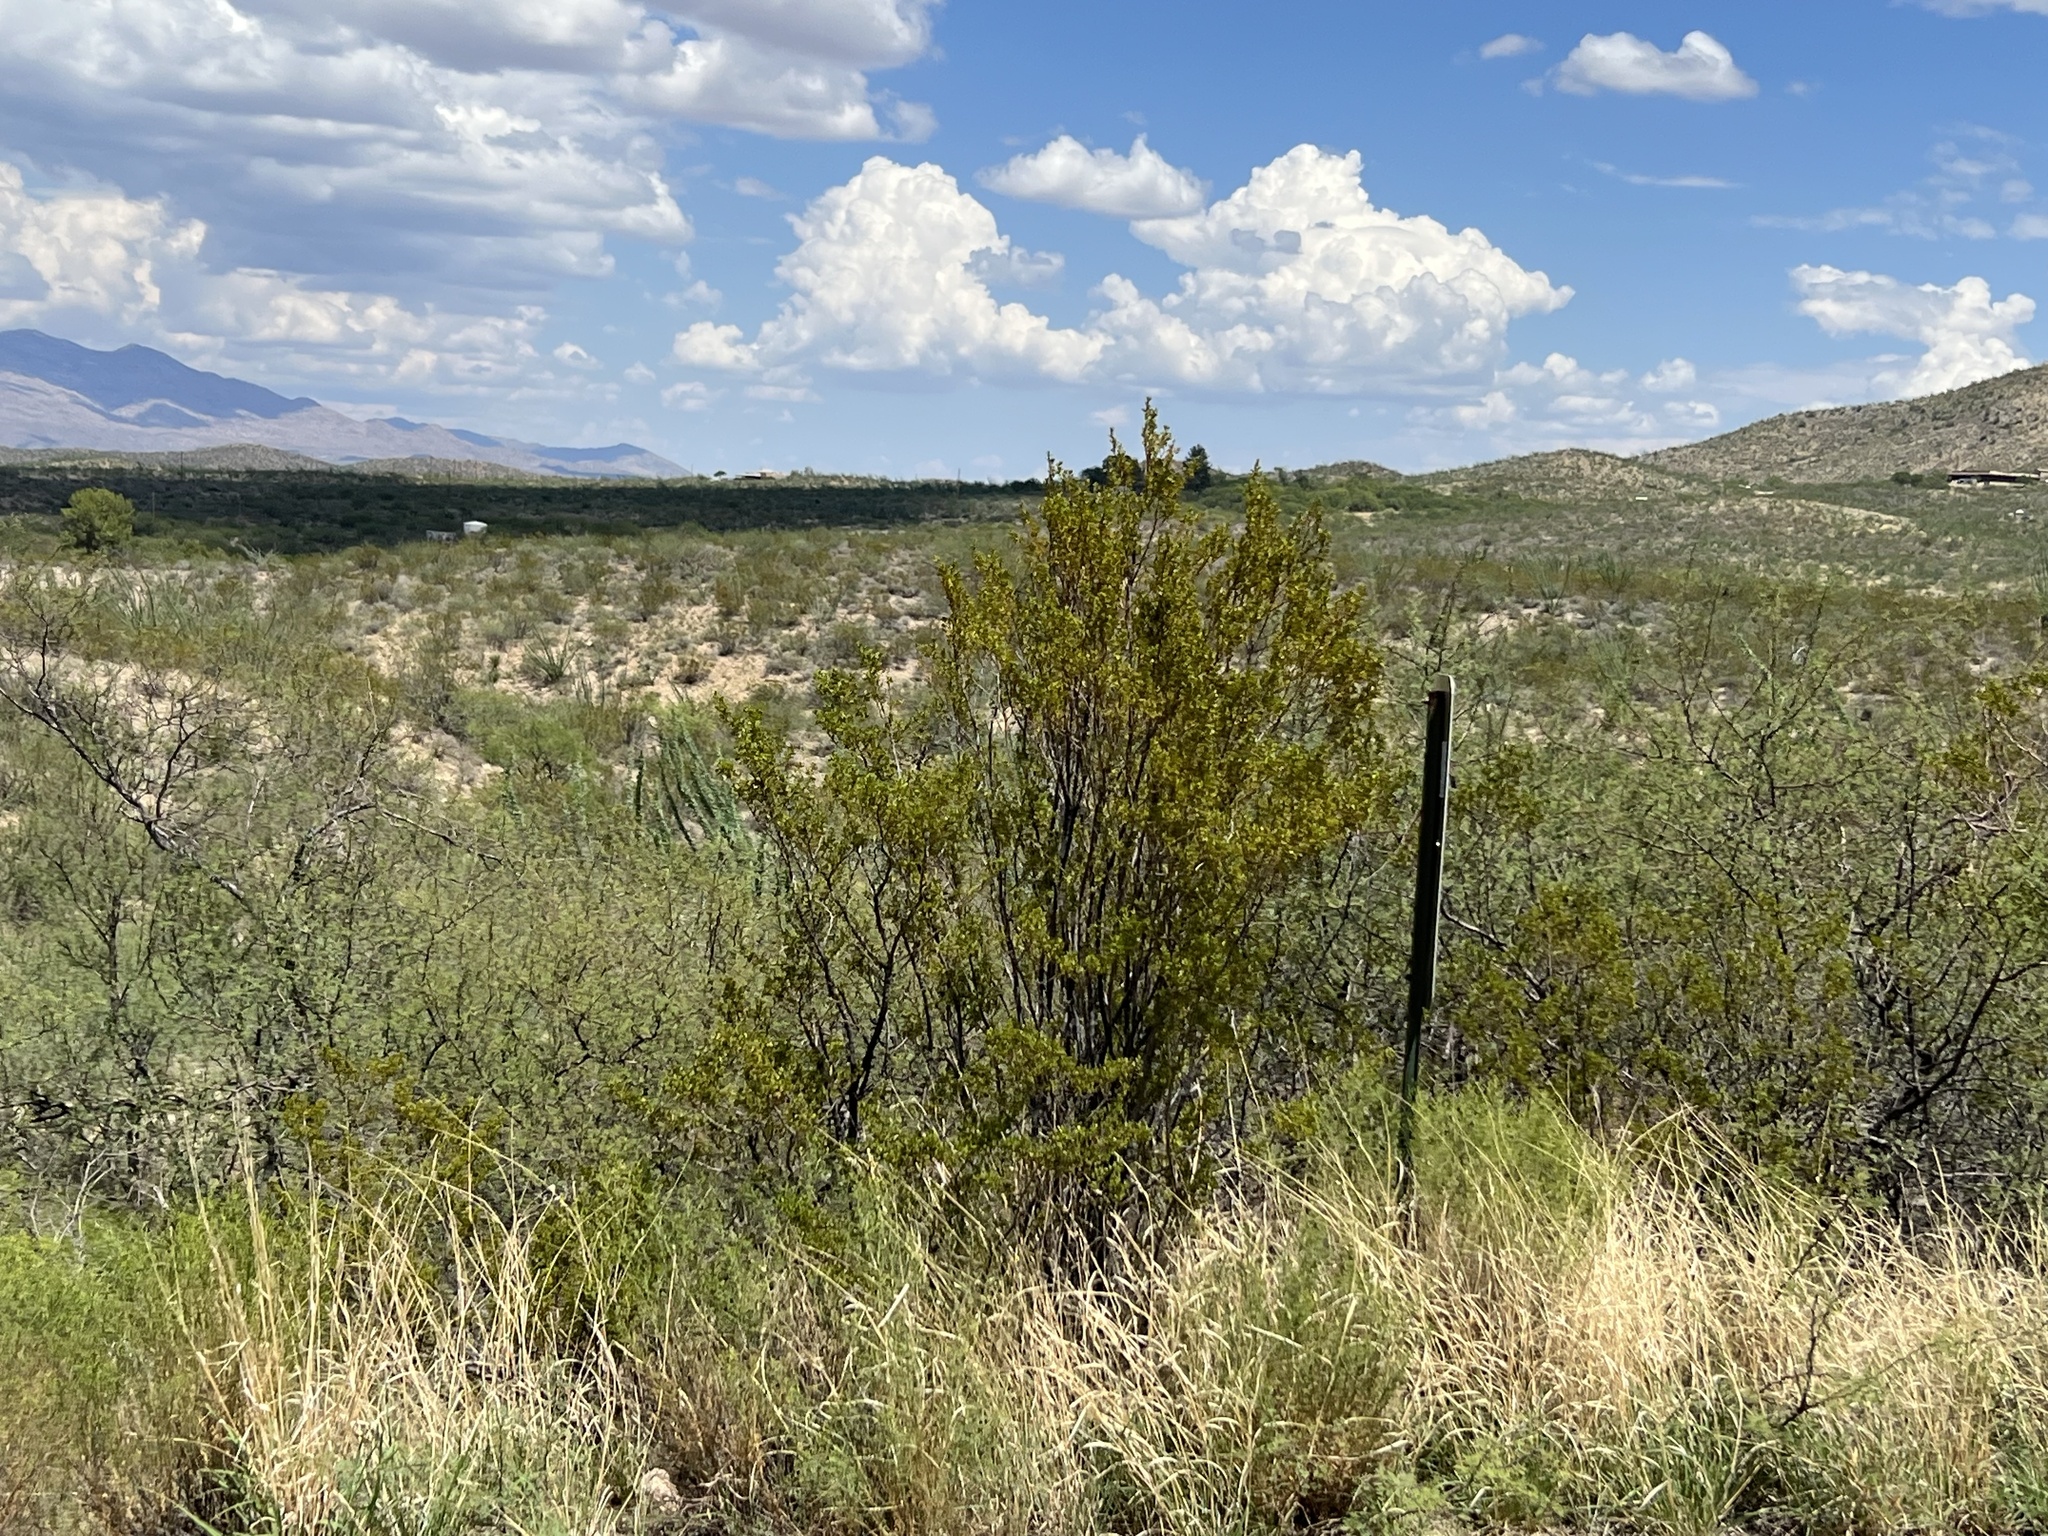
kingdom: Plantae
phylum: Tracheophyta
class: Magnoliopsida
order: Zygophyllales
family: Zygophyllaceae
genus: Larrea
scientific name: Larrea tridentata
